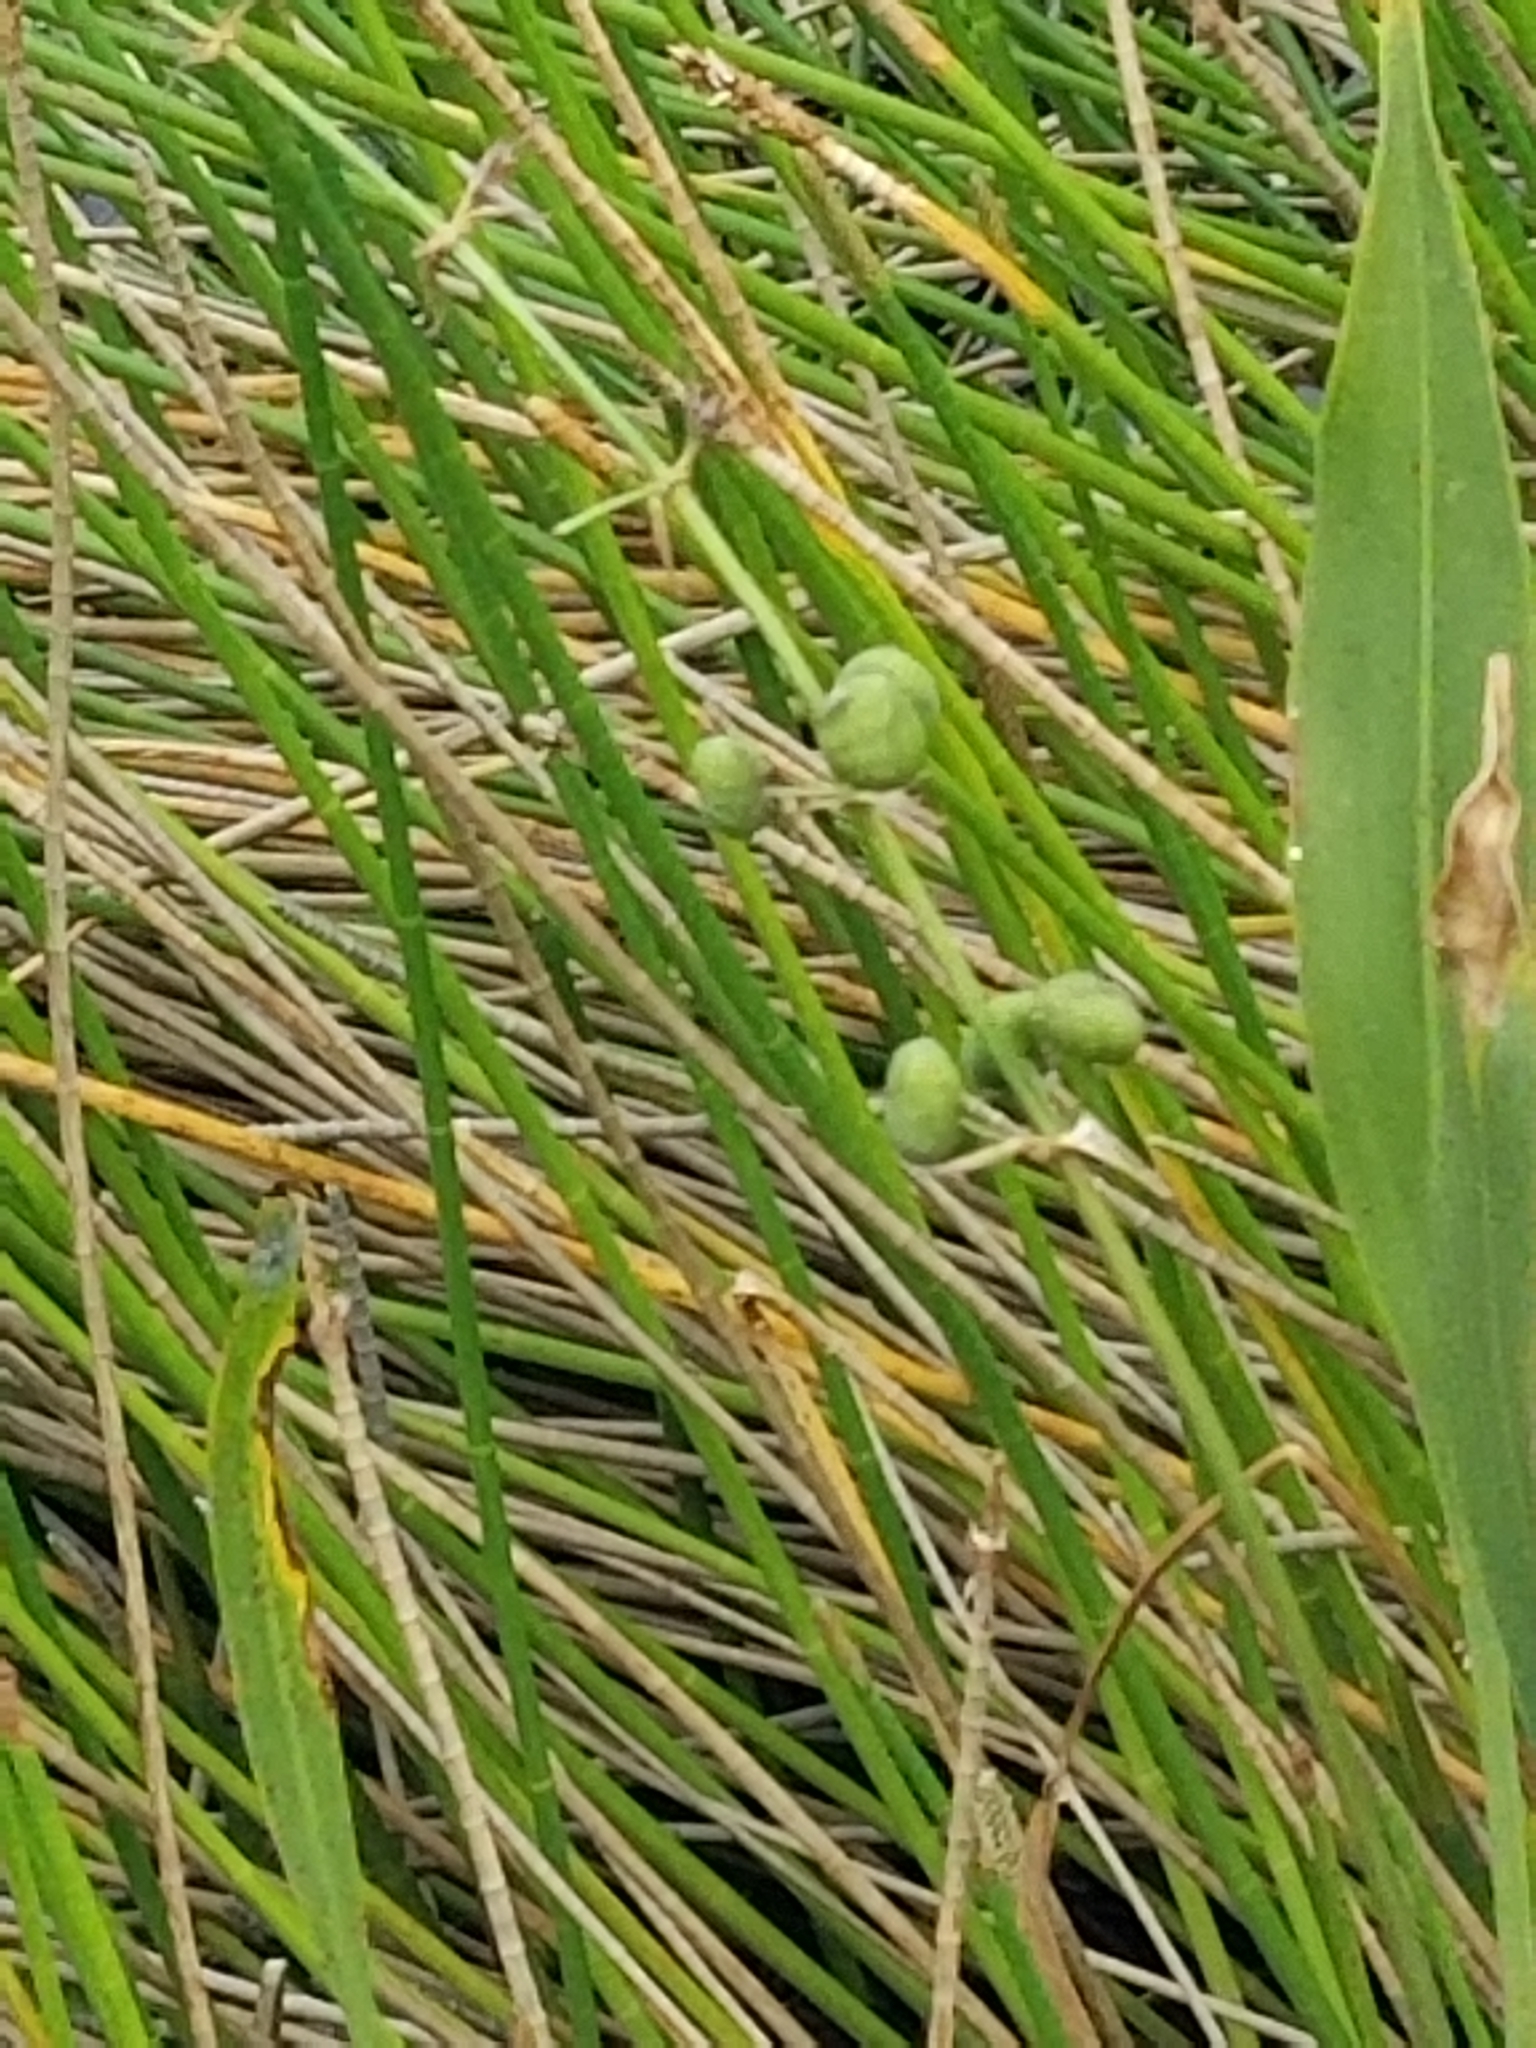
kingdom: Plantae
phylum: Tracheophyta
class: Liliopsida
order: Alismatales
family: Alismataceae
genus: Sagittaria
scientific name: Sagittaria lancifolia
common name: Lance-leaf arrowhead
